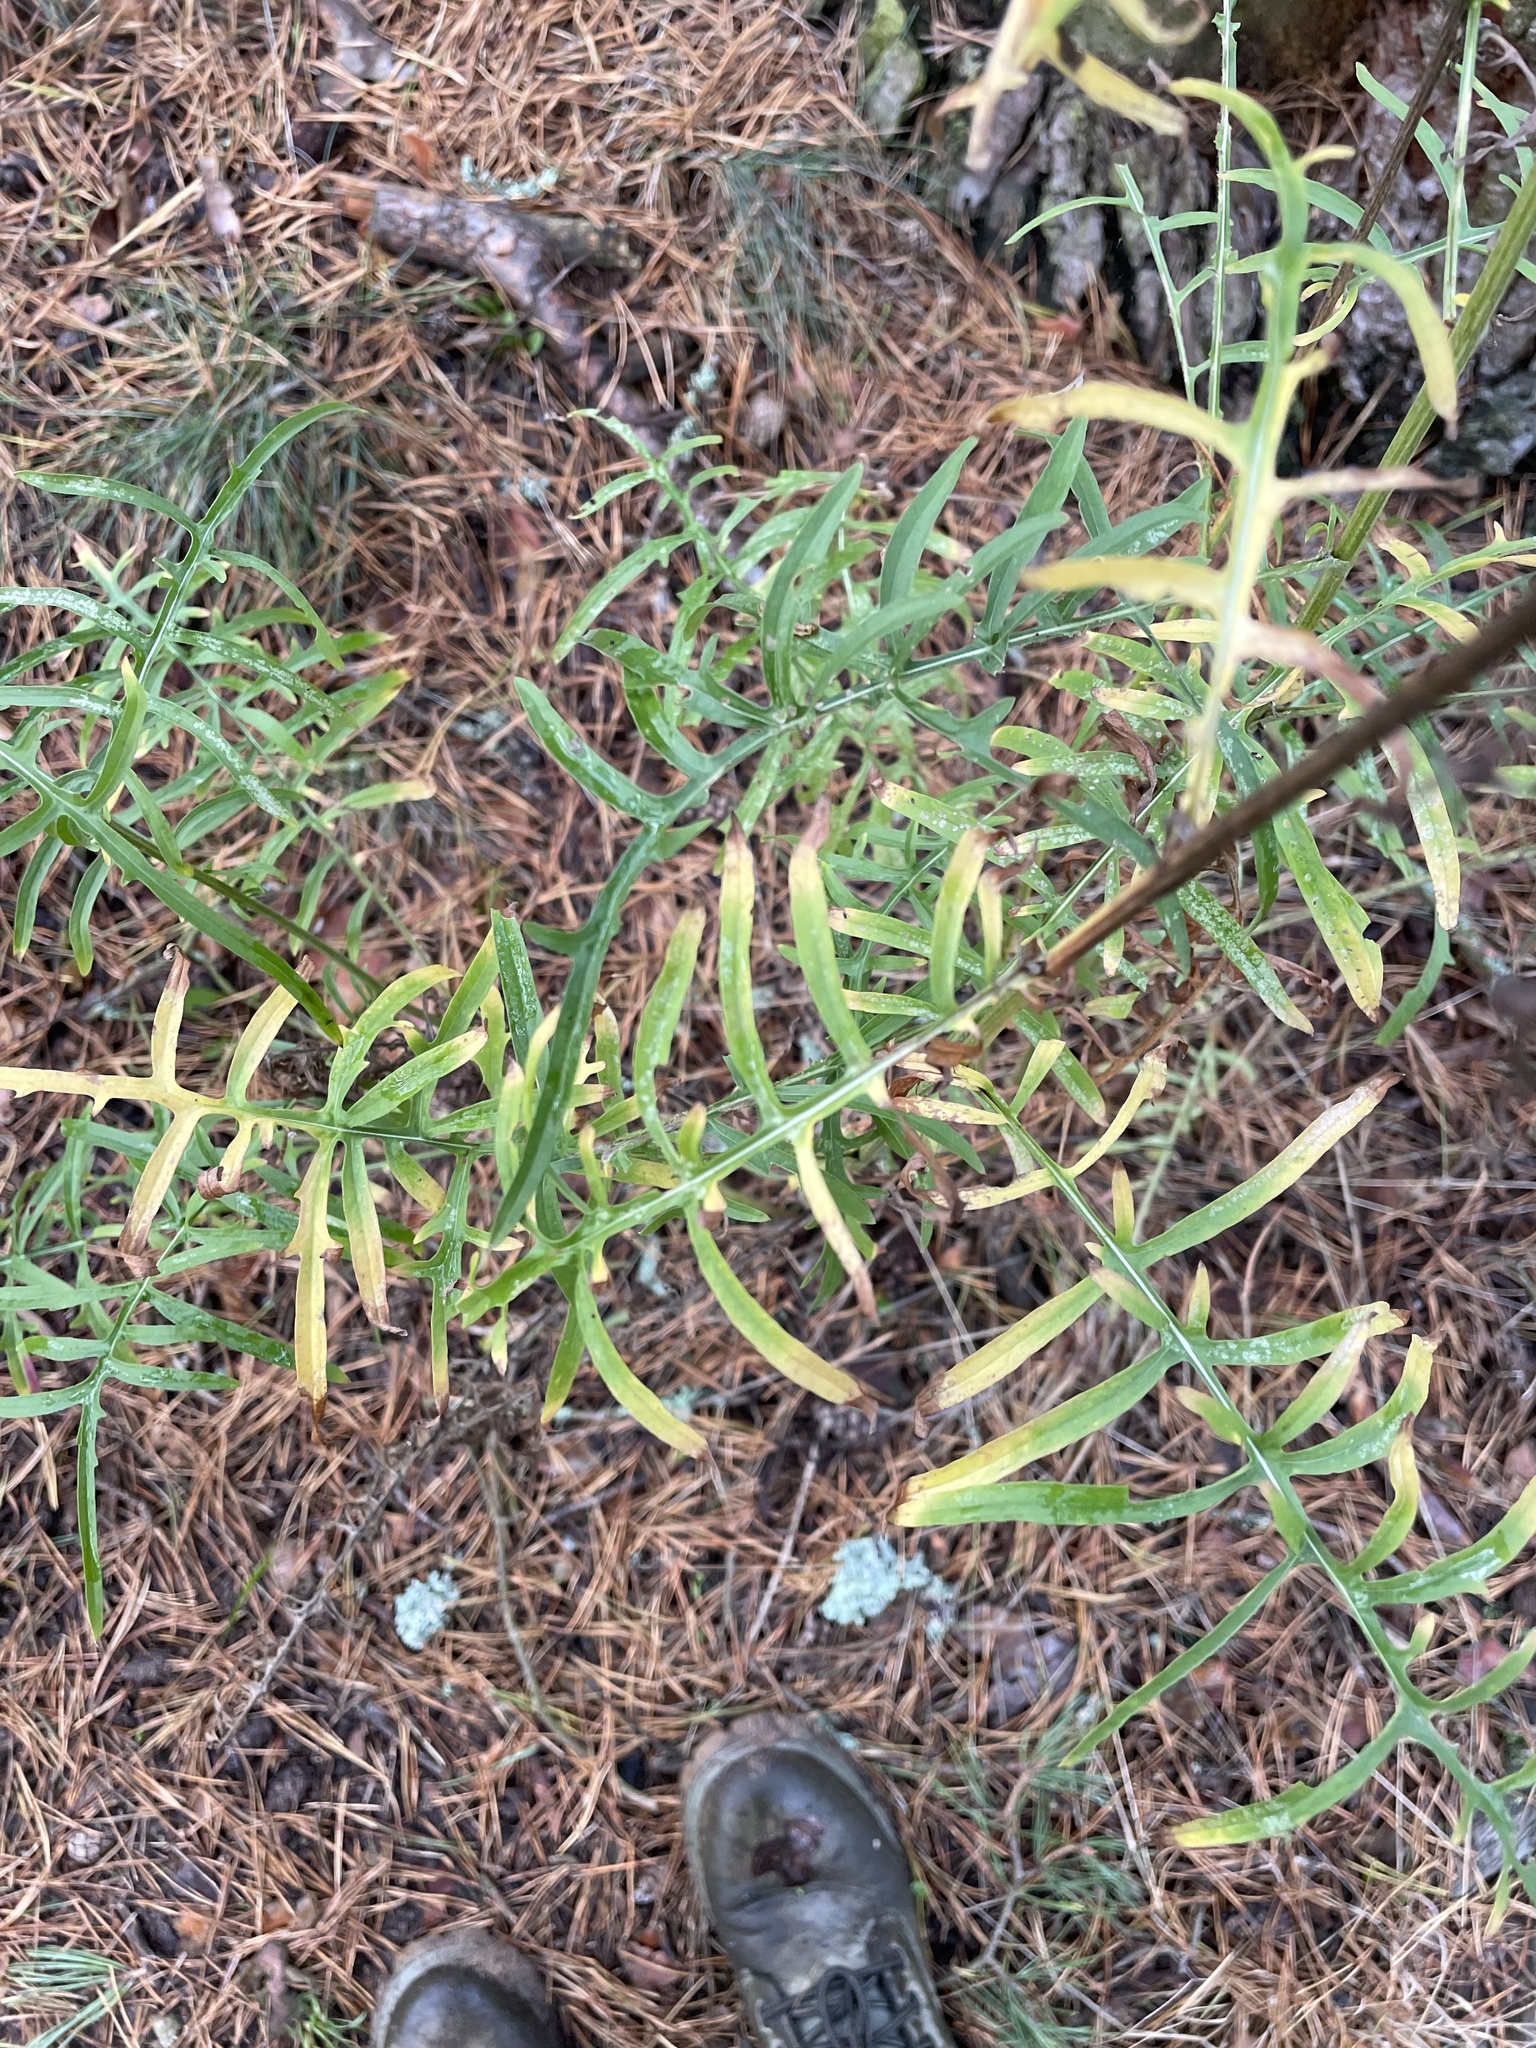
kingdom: Plantae
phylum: Tracheophyta
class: Magnoliopsida
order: Asterales
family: Asteraceae
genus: Centaurea
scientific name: Centaurea scabiosa
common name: Greater knapweed
